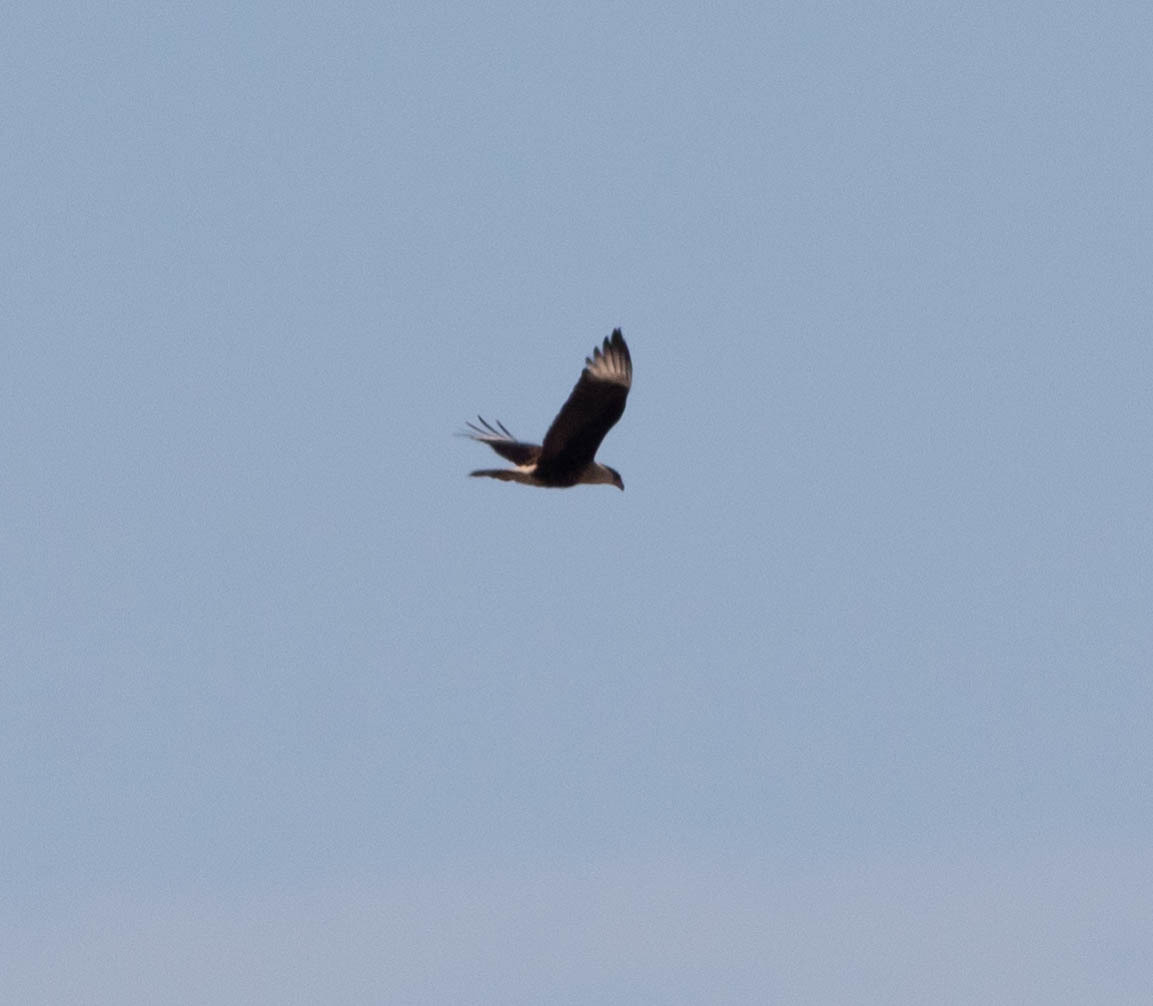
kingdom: Animalia
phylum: Chordata
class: Aves
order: Falconiformes
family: Falconidae
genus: Caracara
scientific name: Caracara plancus
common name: Southern caracara
